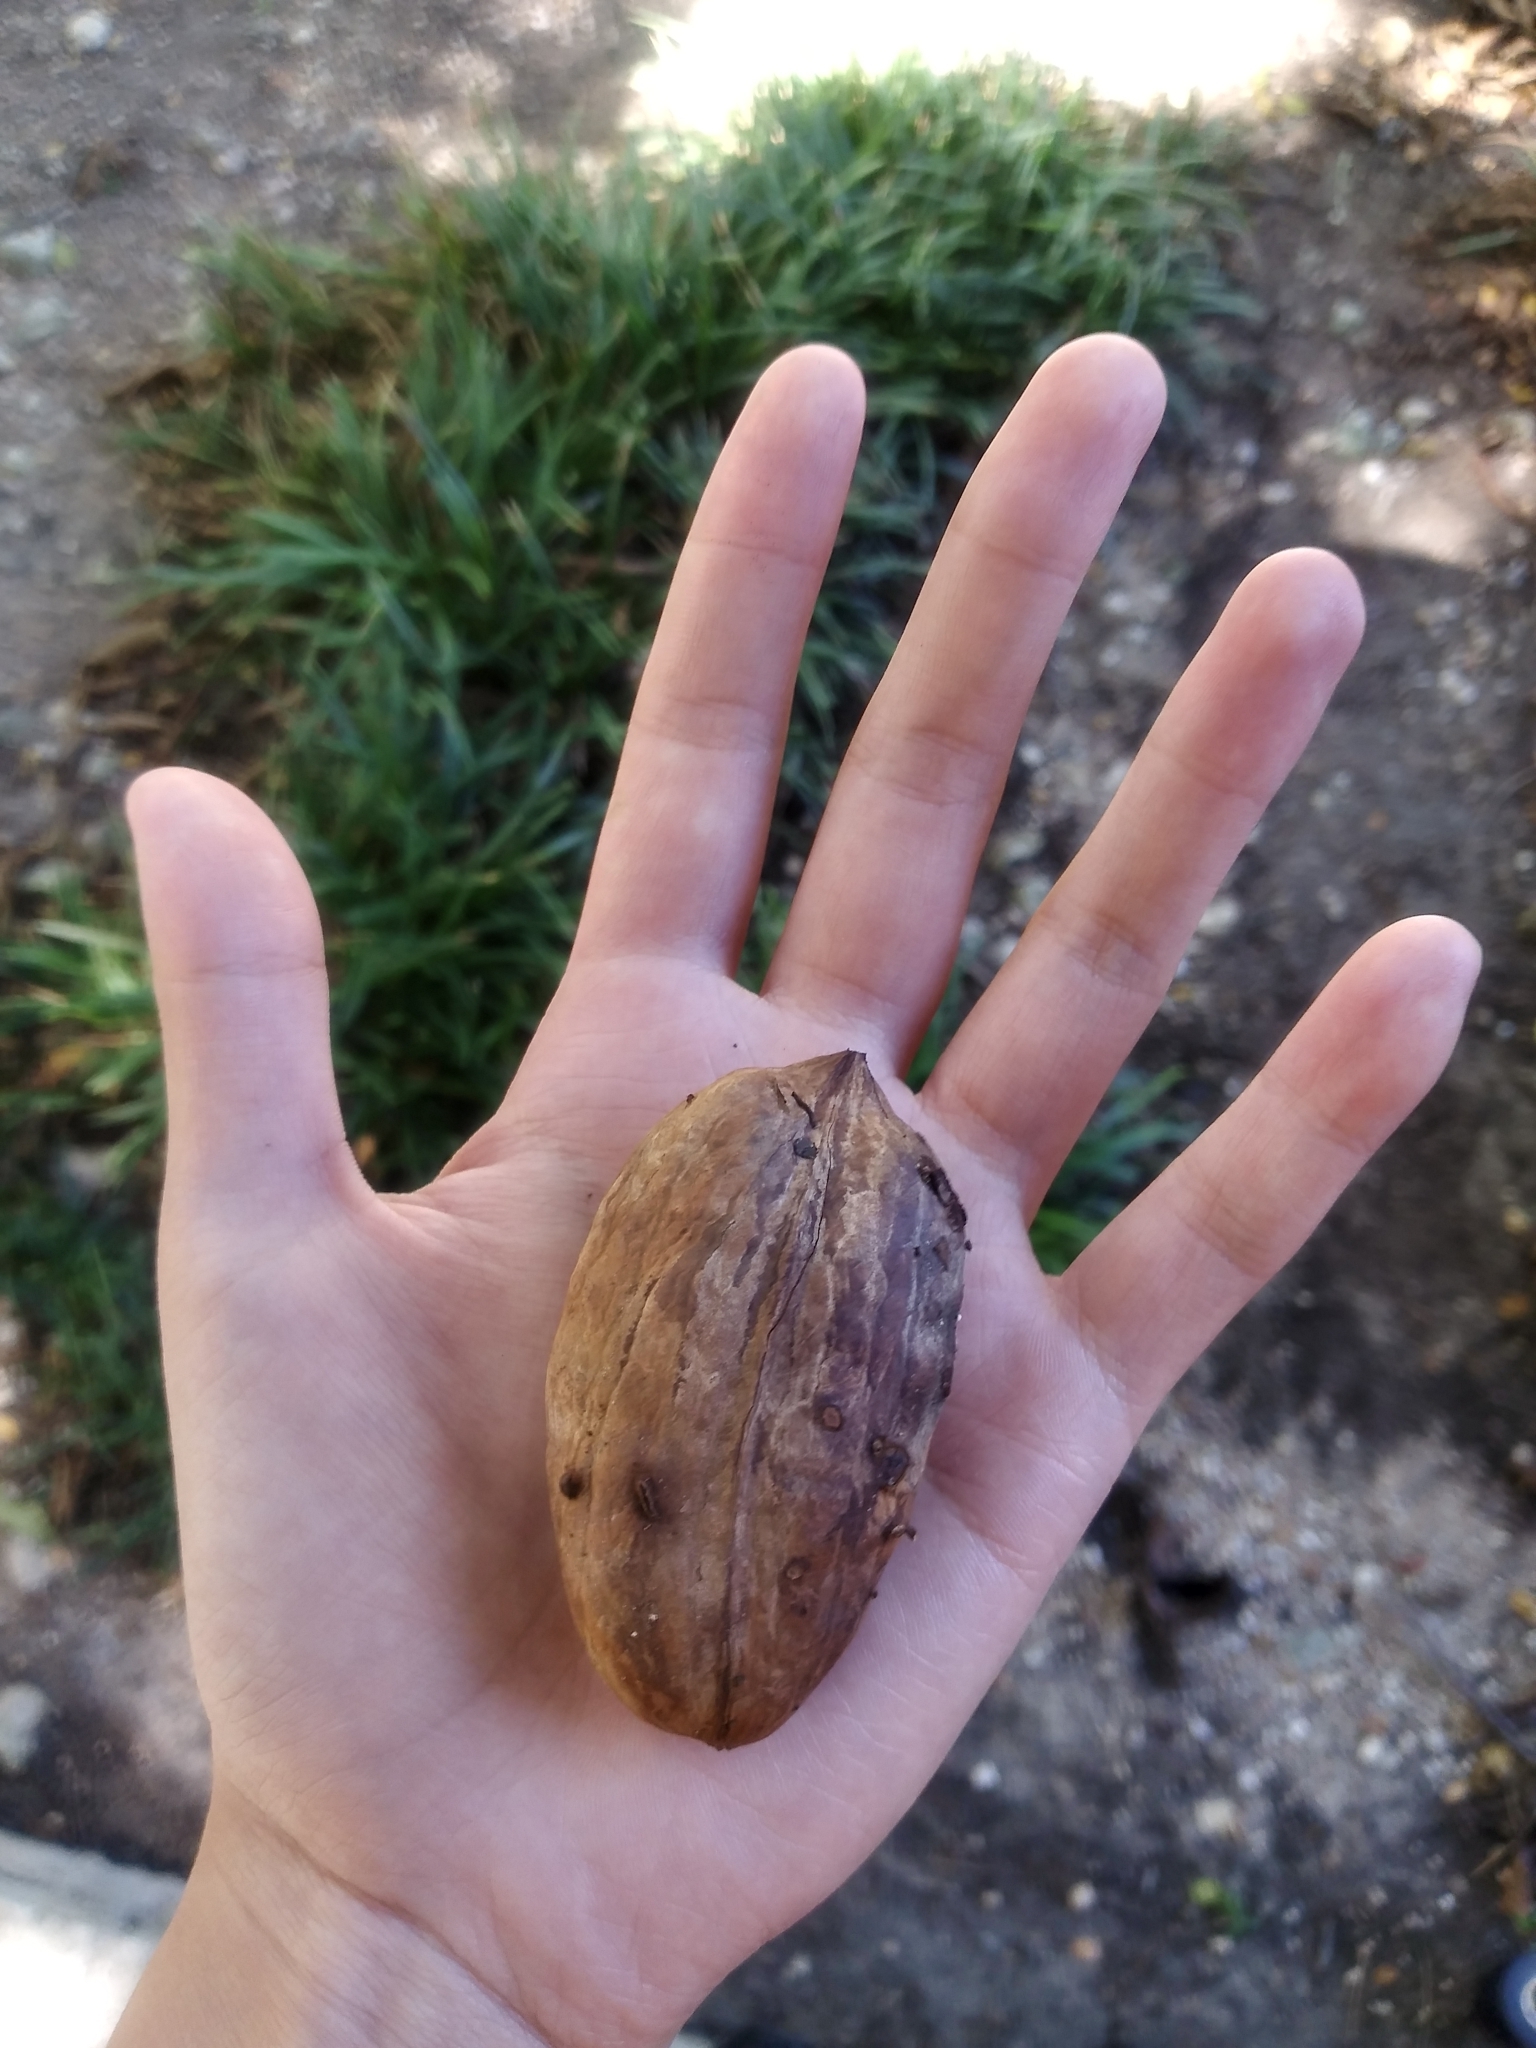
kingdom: Plantae
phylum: Tracheophyta
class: Magnoliopsida
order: Fagales
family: Juglandaceae
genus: Carya
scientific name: Carya illinoinensis
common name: Pecan
